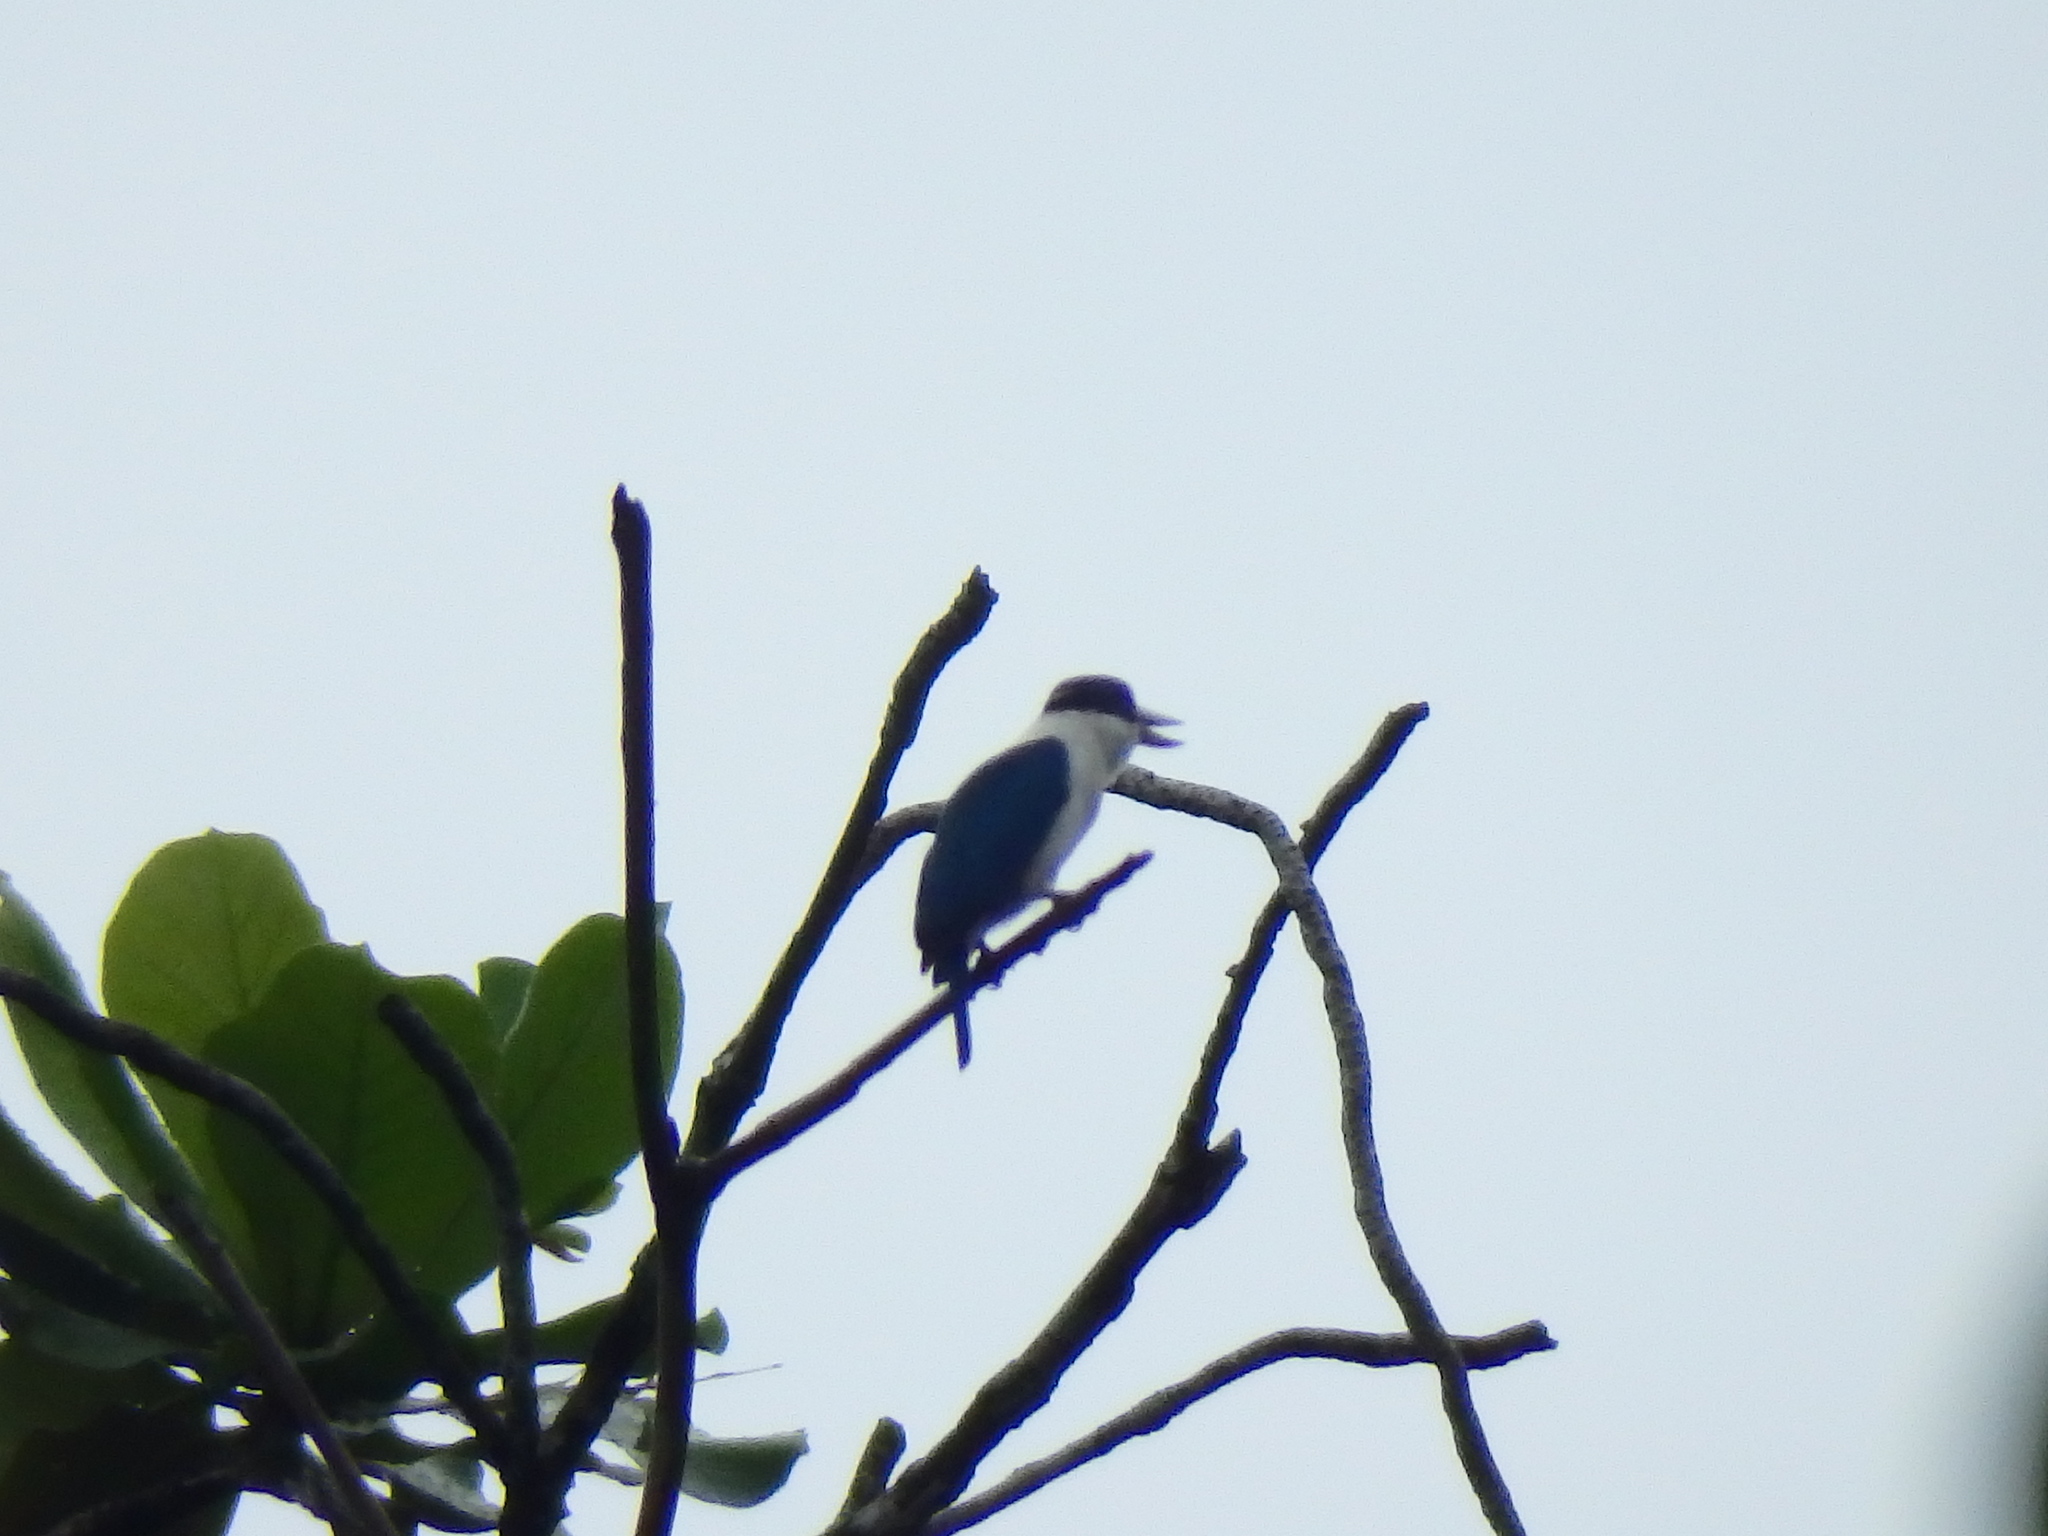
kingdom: Animalia
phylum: Chordata
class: Aves
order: Coraciiformes
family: Alcedinidae
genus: Todiramphus
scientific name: Todiramphus chloris
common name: Collared kingfisher
